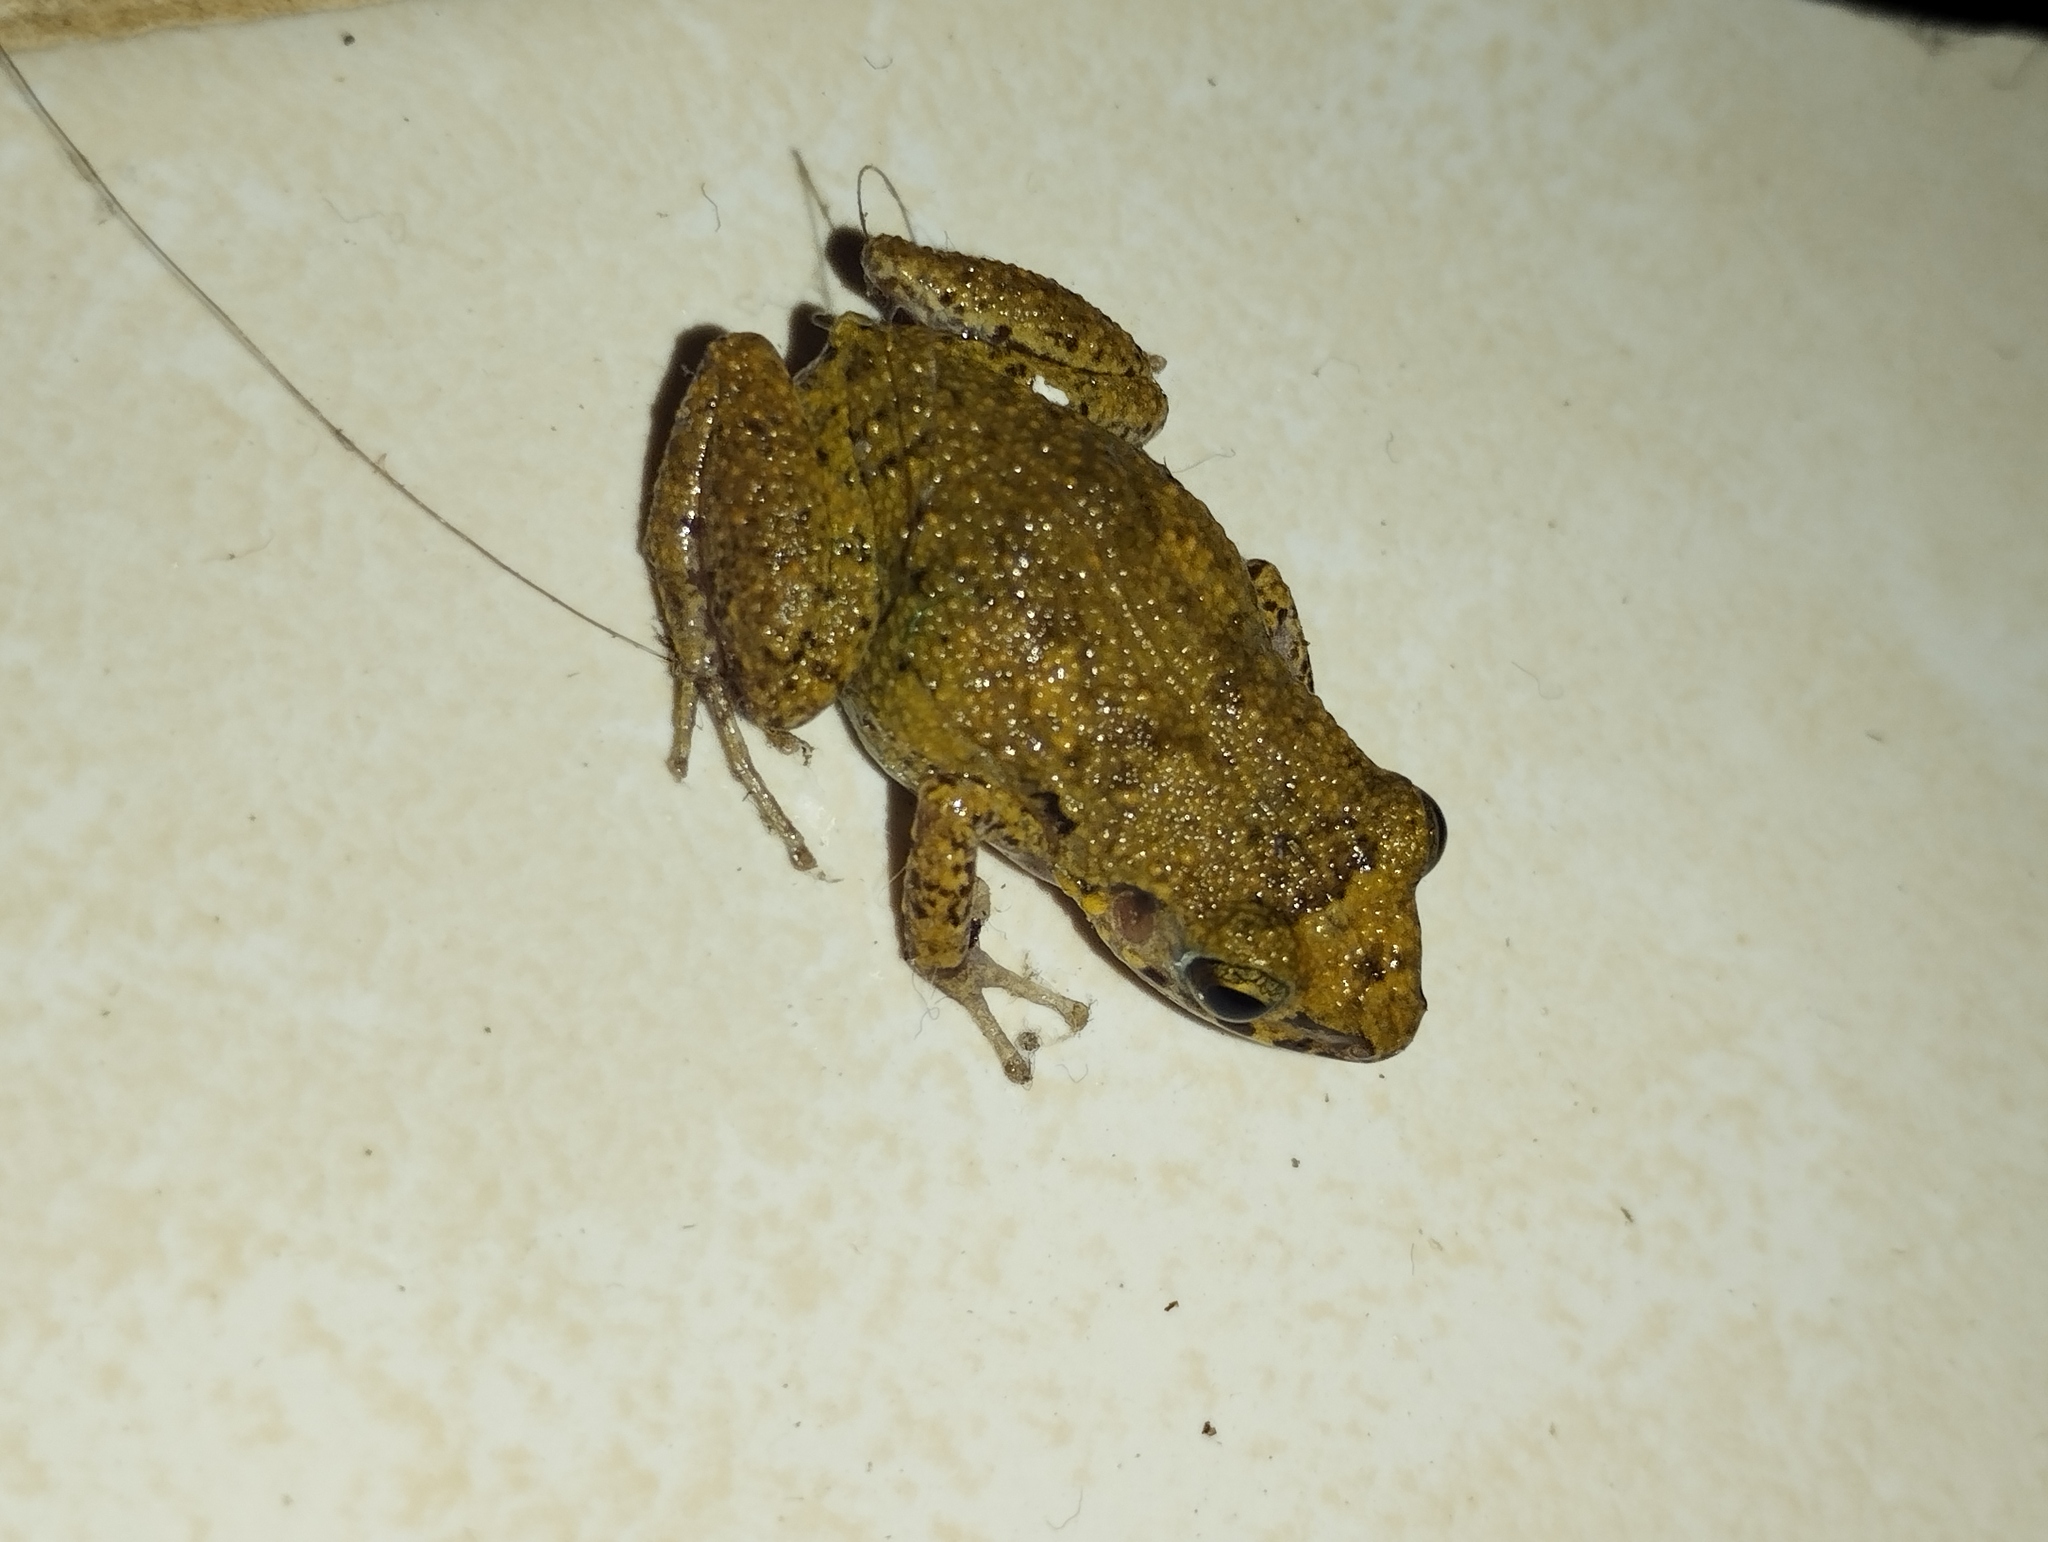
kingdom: Animalia
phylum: Chordata
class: Amphibia
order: Anura
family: Eleutherodactylidae
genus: Eleutherodactylus
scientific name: Eleutherodactylus planirostris
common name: Greenhouse frog
